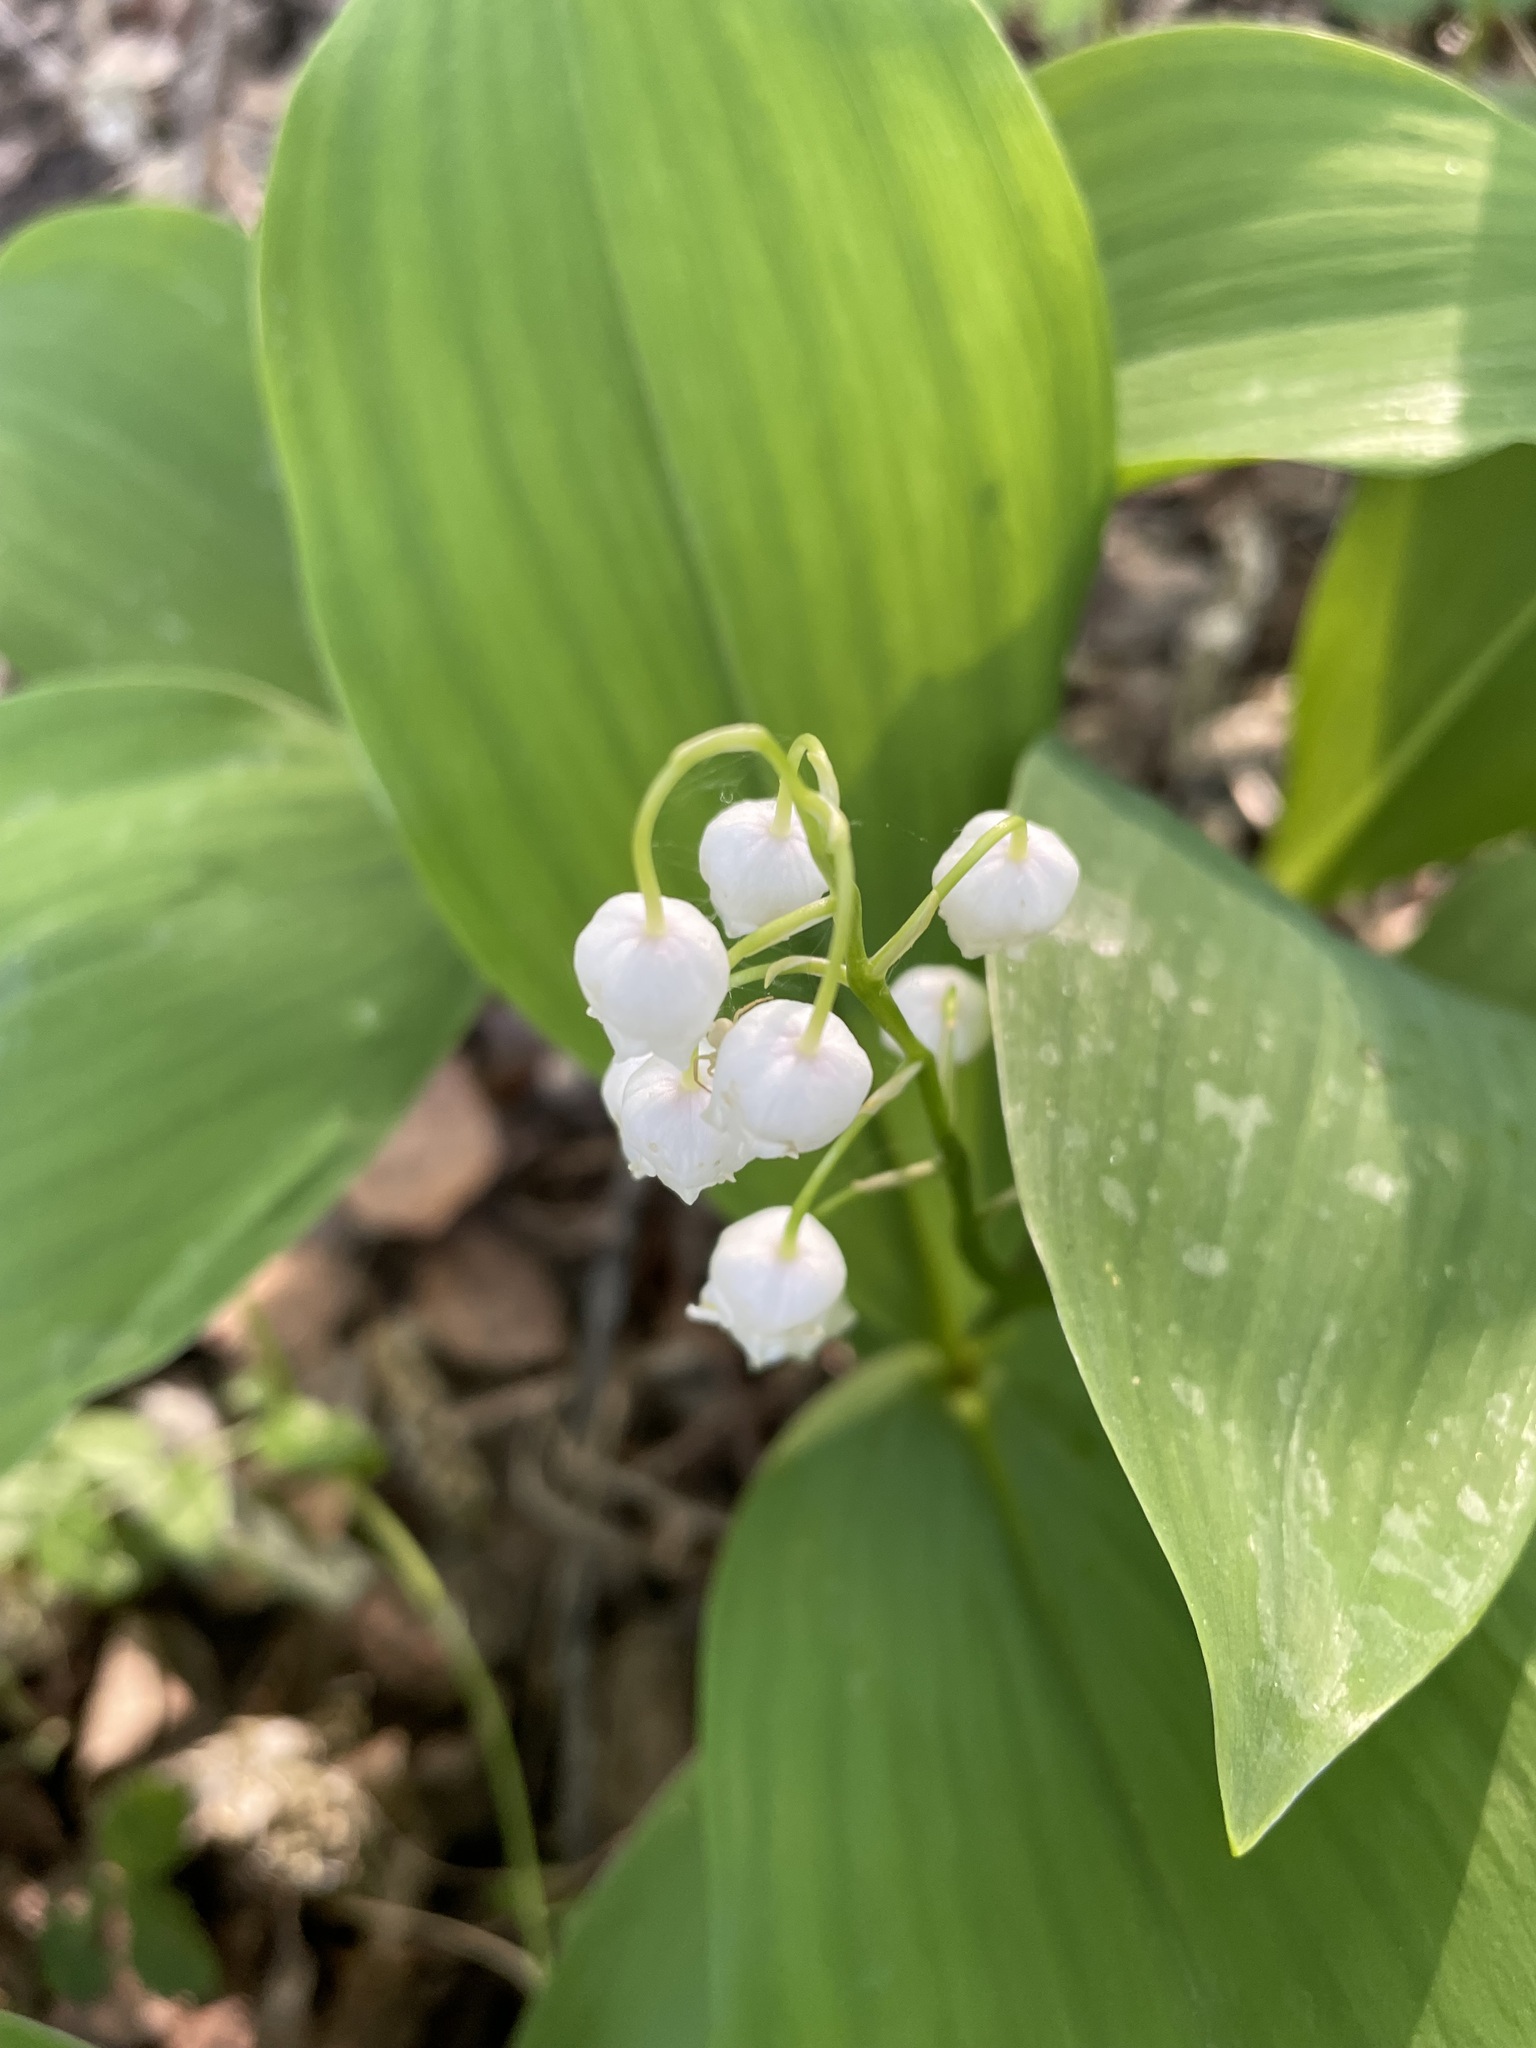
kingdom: Plantae
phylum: Tracheophyta
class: Liliopsida
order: Asparagales
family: Asparagaceae
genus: Convallaria
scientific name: Convallaria majalis
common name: Lily-of-the-valley
